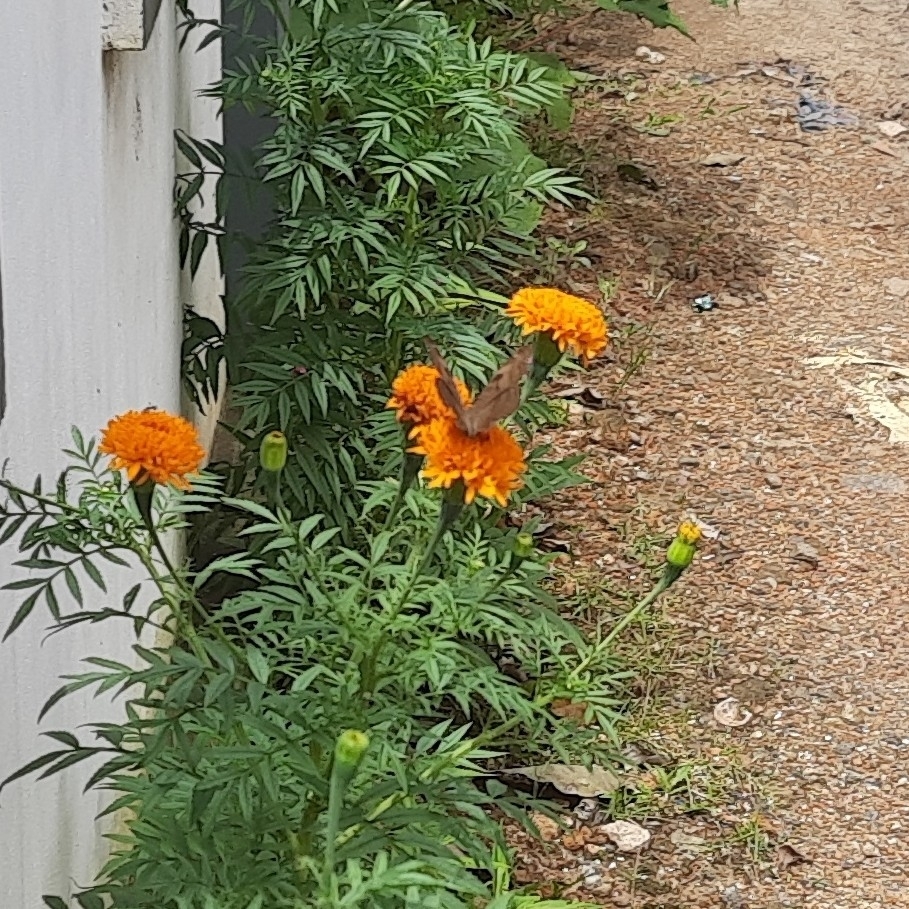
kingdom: Animalia
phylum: Arthropoda
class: Insecta
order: Lepidoptera
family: Nymphalidae
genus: Junonia
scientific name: Junonia iphita
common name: Chocolate pansy
